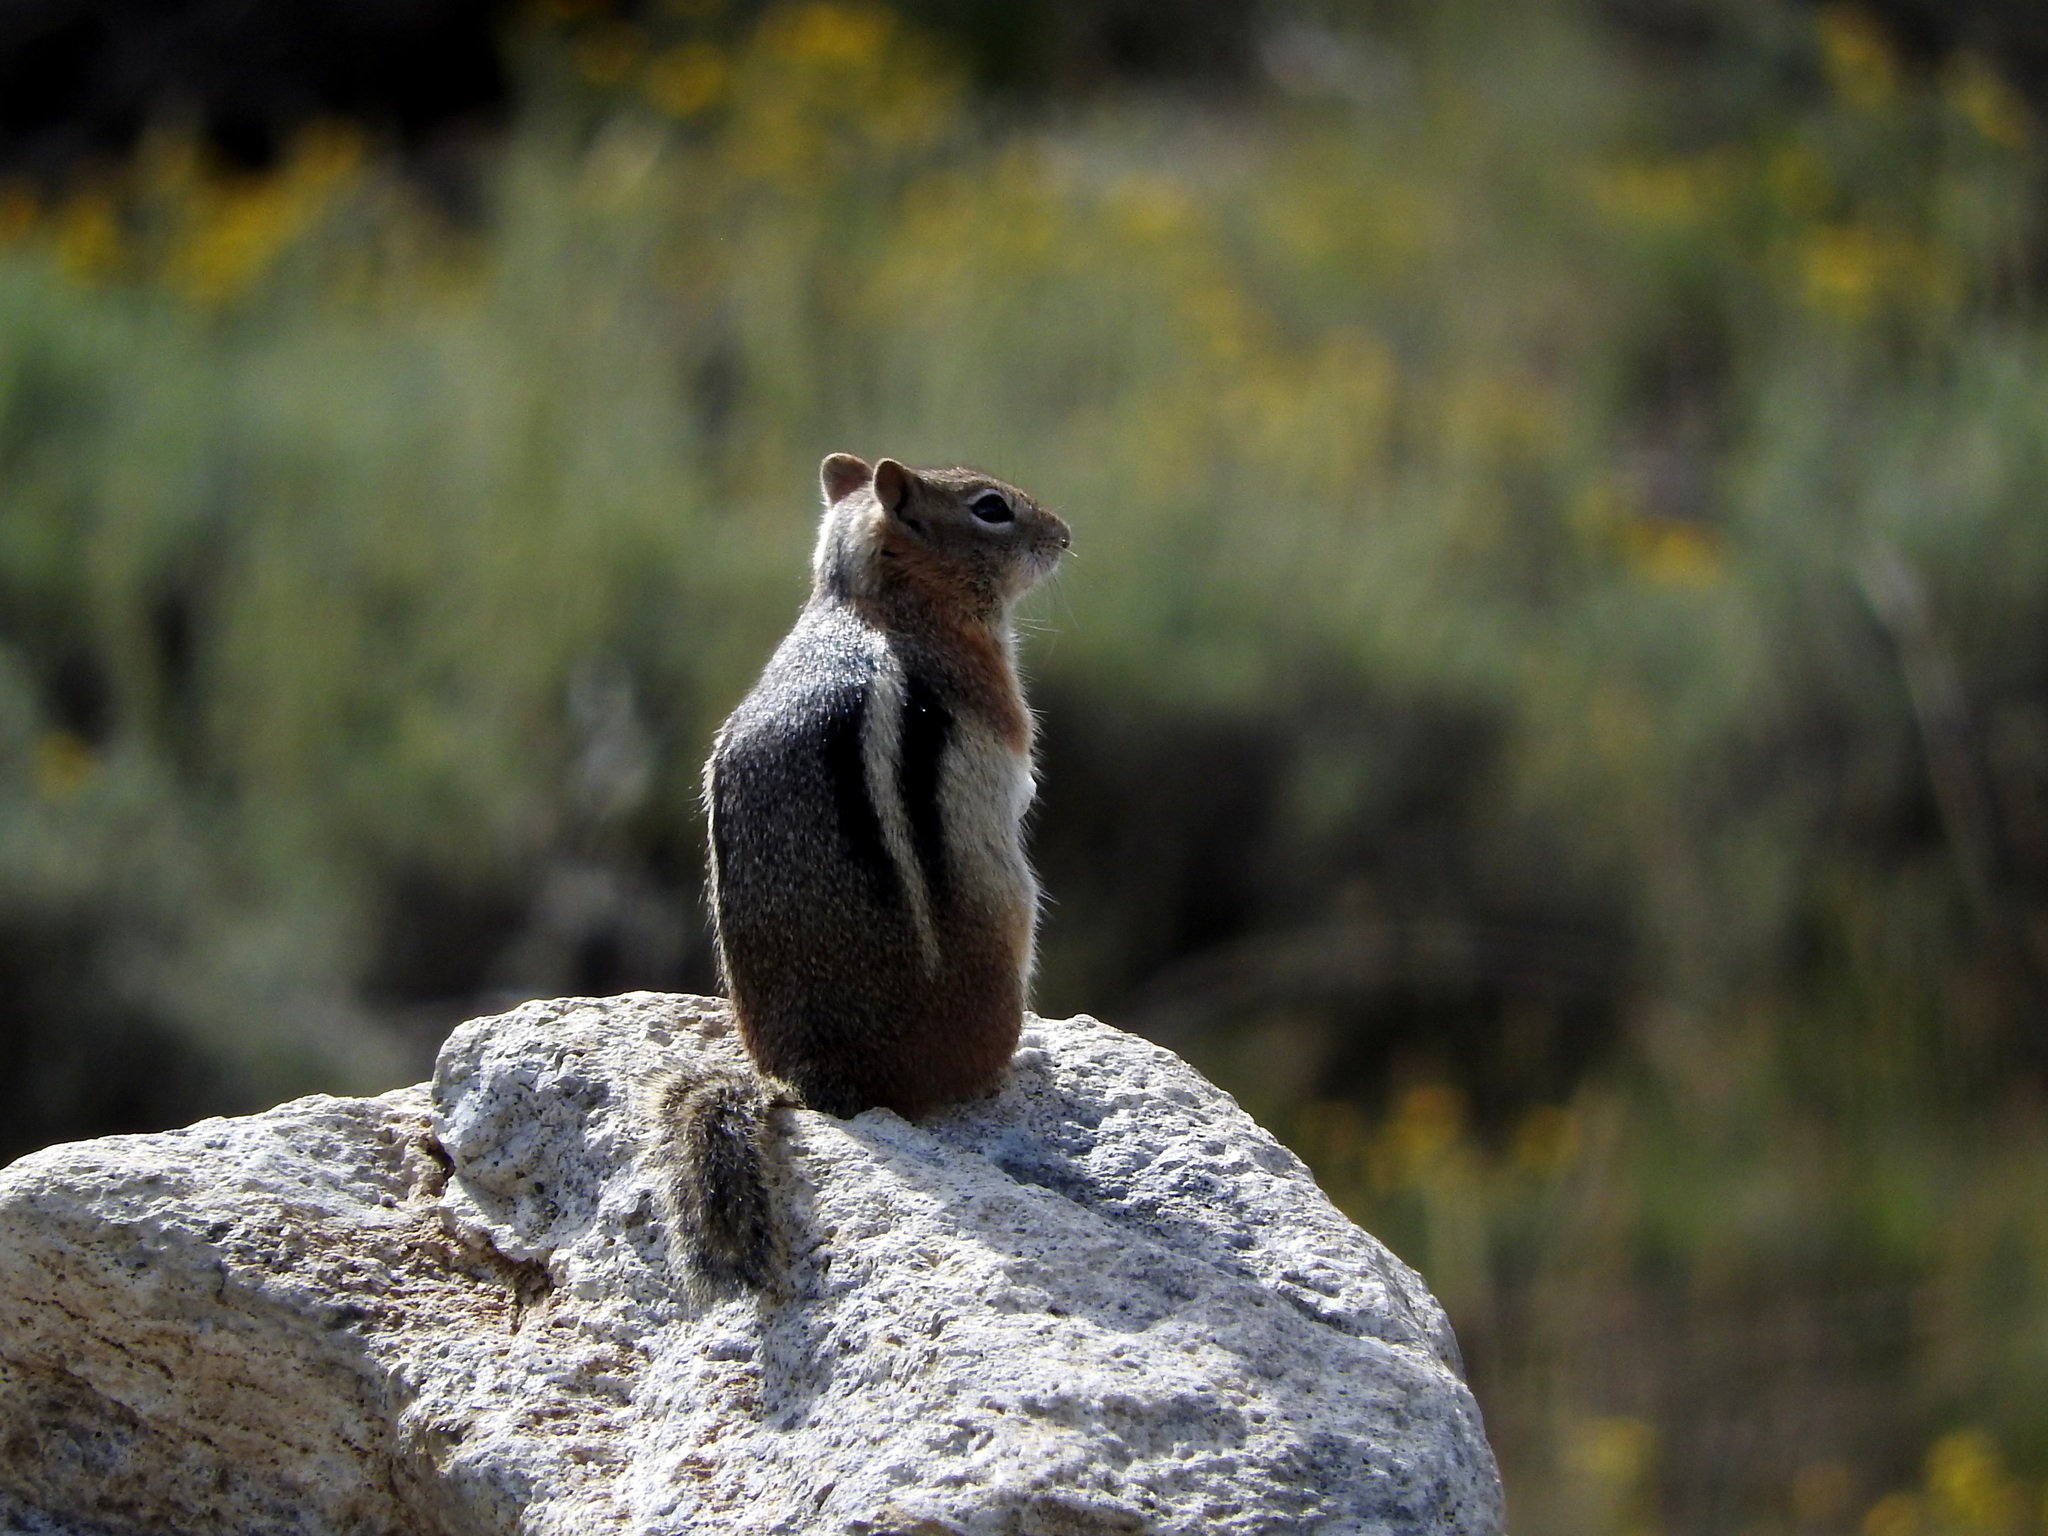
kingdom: Animalia
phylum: Chordata
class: Mammalia
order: Rodentia
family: Sciuridae
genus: Callospermophilus
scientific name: Callospermophilus lateralis
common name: Golden-mantled ground squirrel
